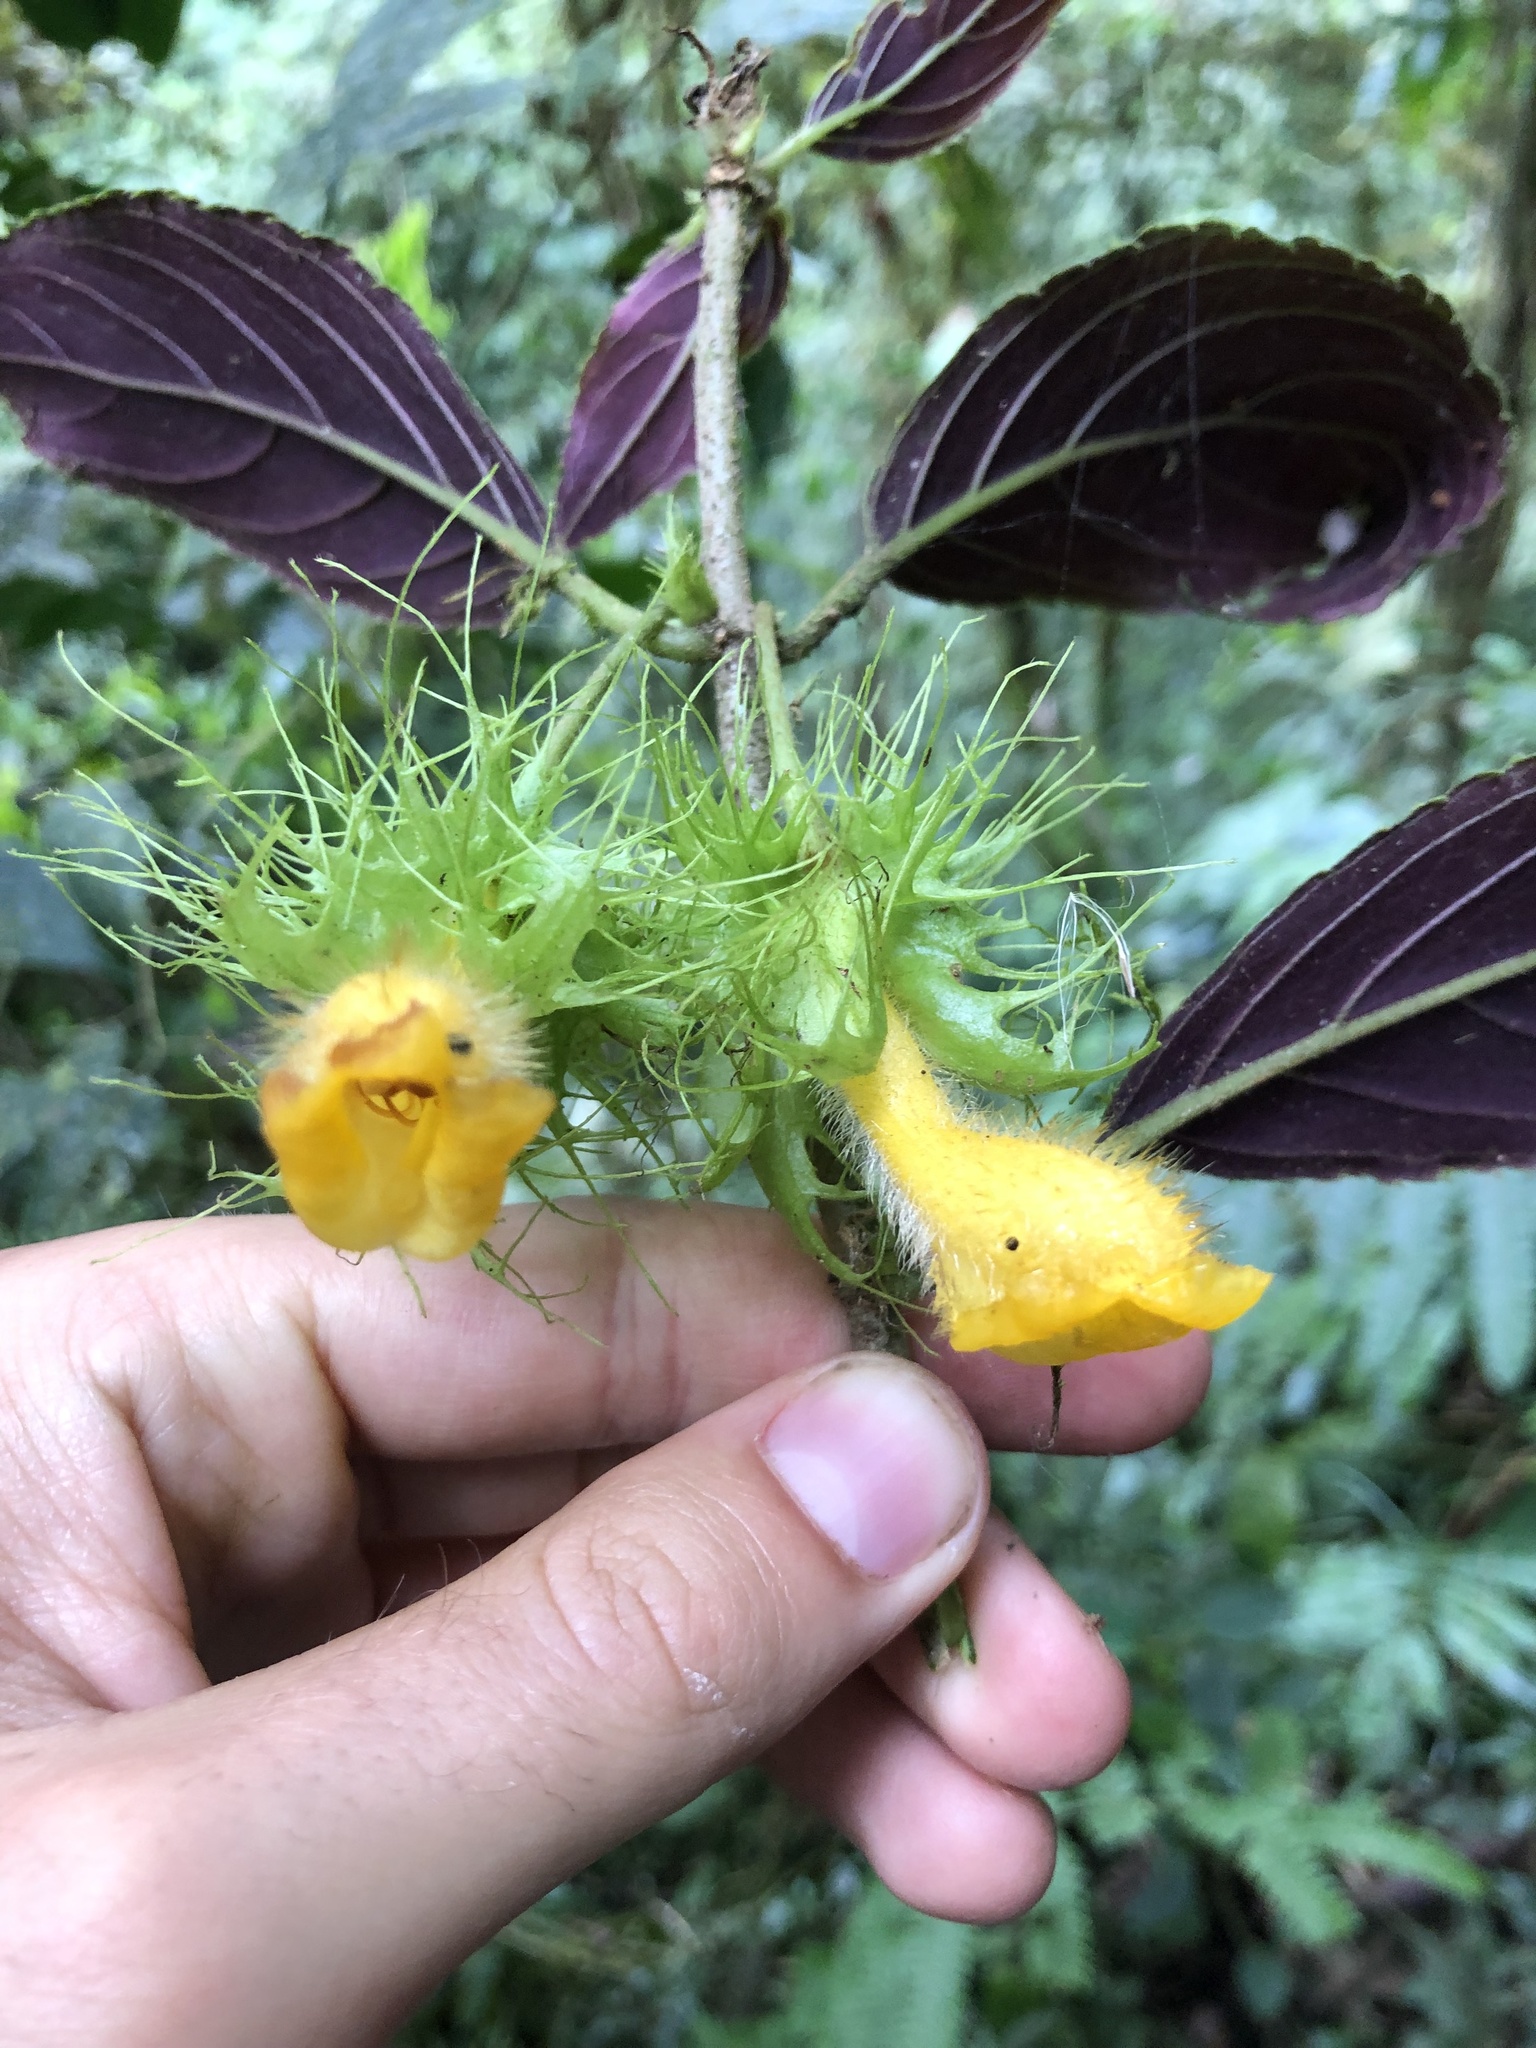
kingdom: Plantae
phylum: Tracheophyta
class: Magnoliopsida
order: Lamiales
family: Gesneriaceae
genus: Glossoloma
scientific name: Glossoloma purpureum
